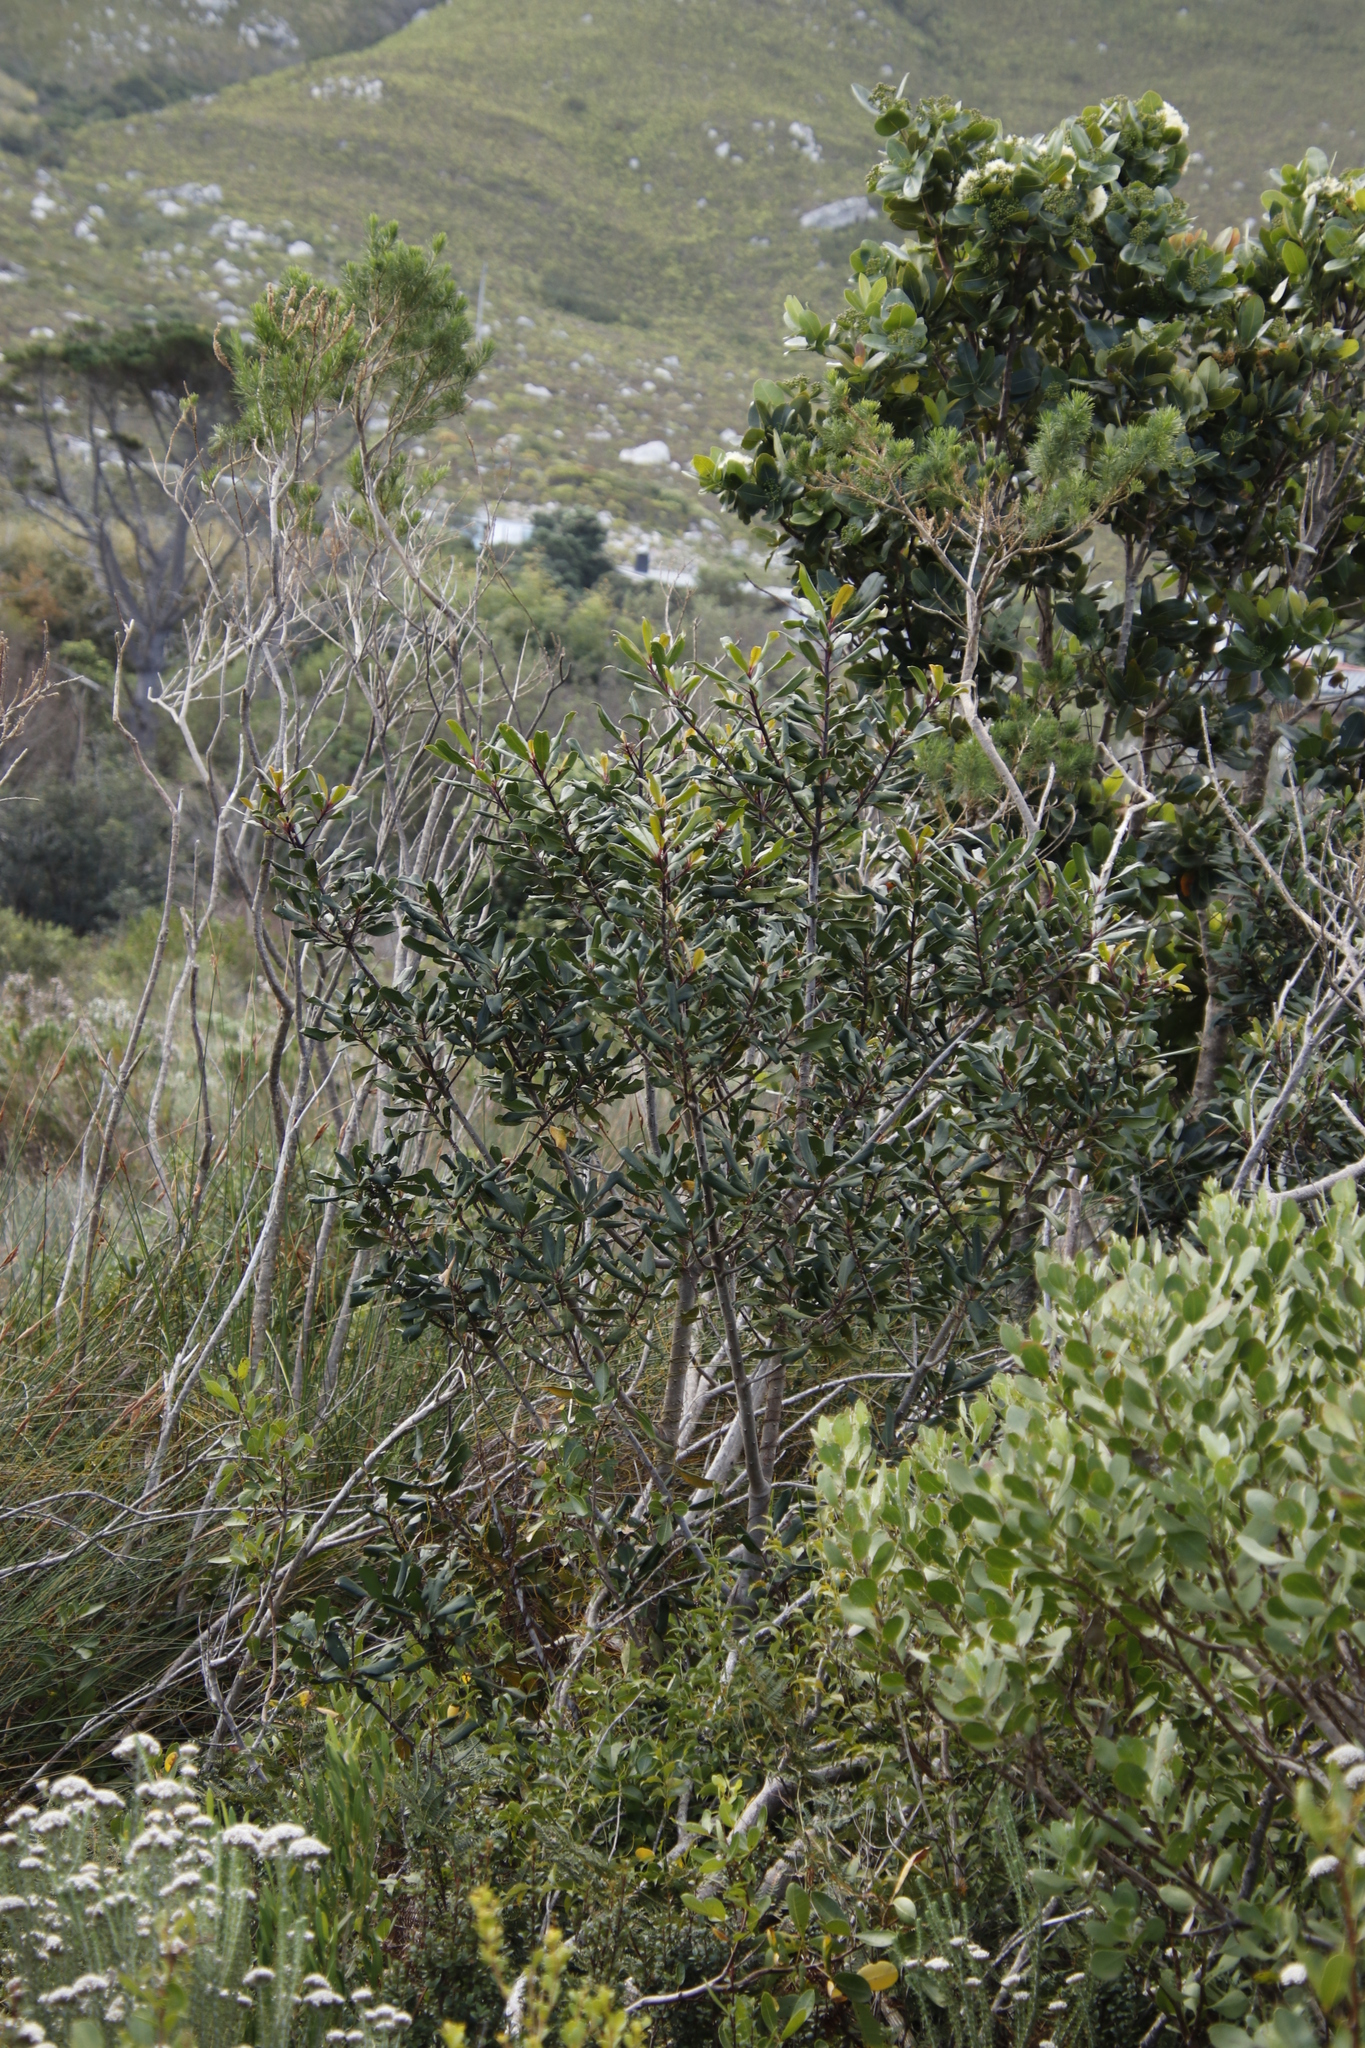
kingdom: Plantae
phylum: Tracheophyta
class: Magnoliopsida
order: Ericales
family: Primulaceae
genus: Myrsine
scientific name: Myrsine melanophloeos
